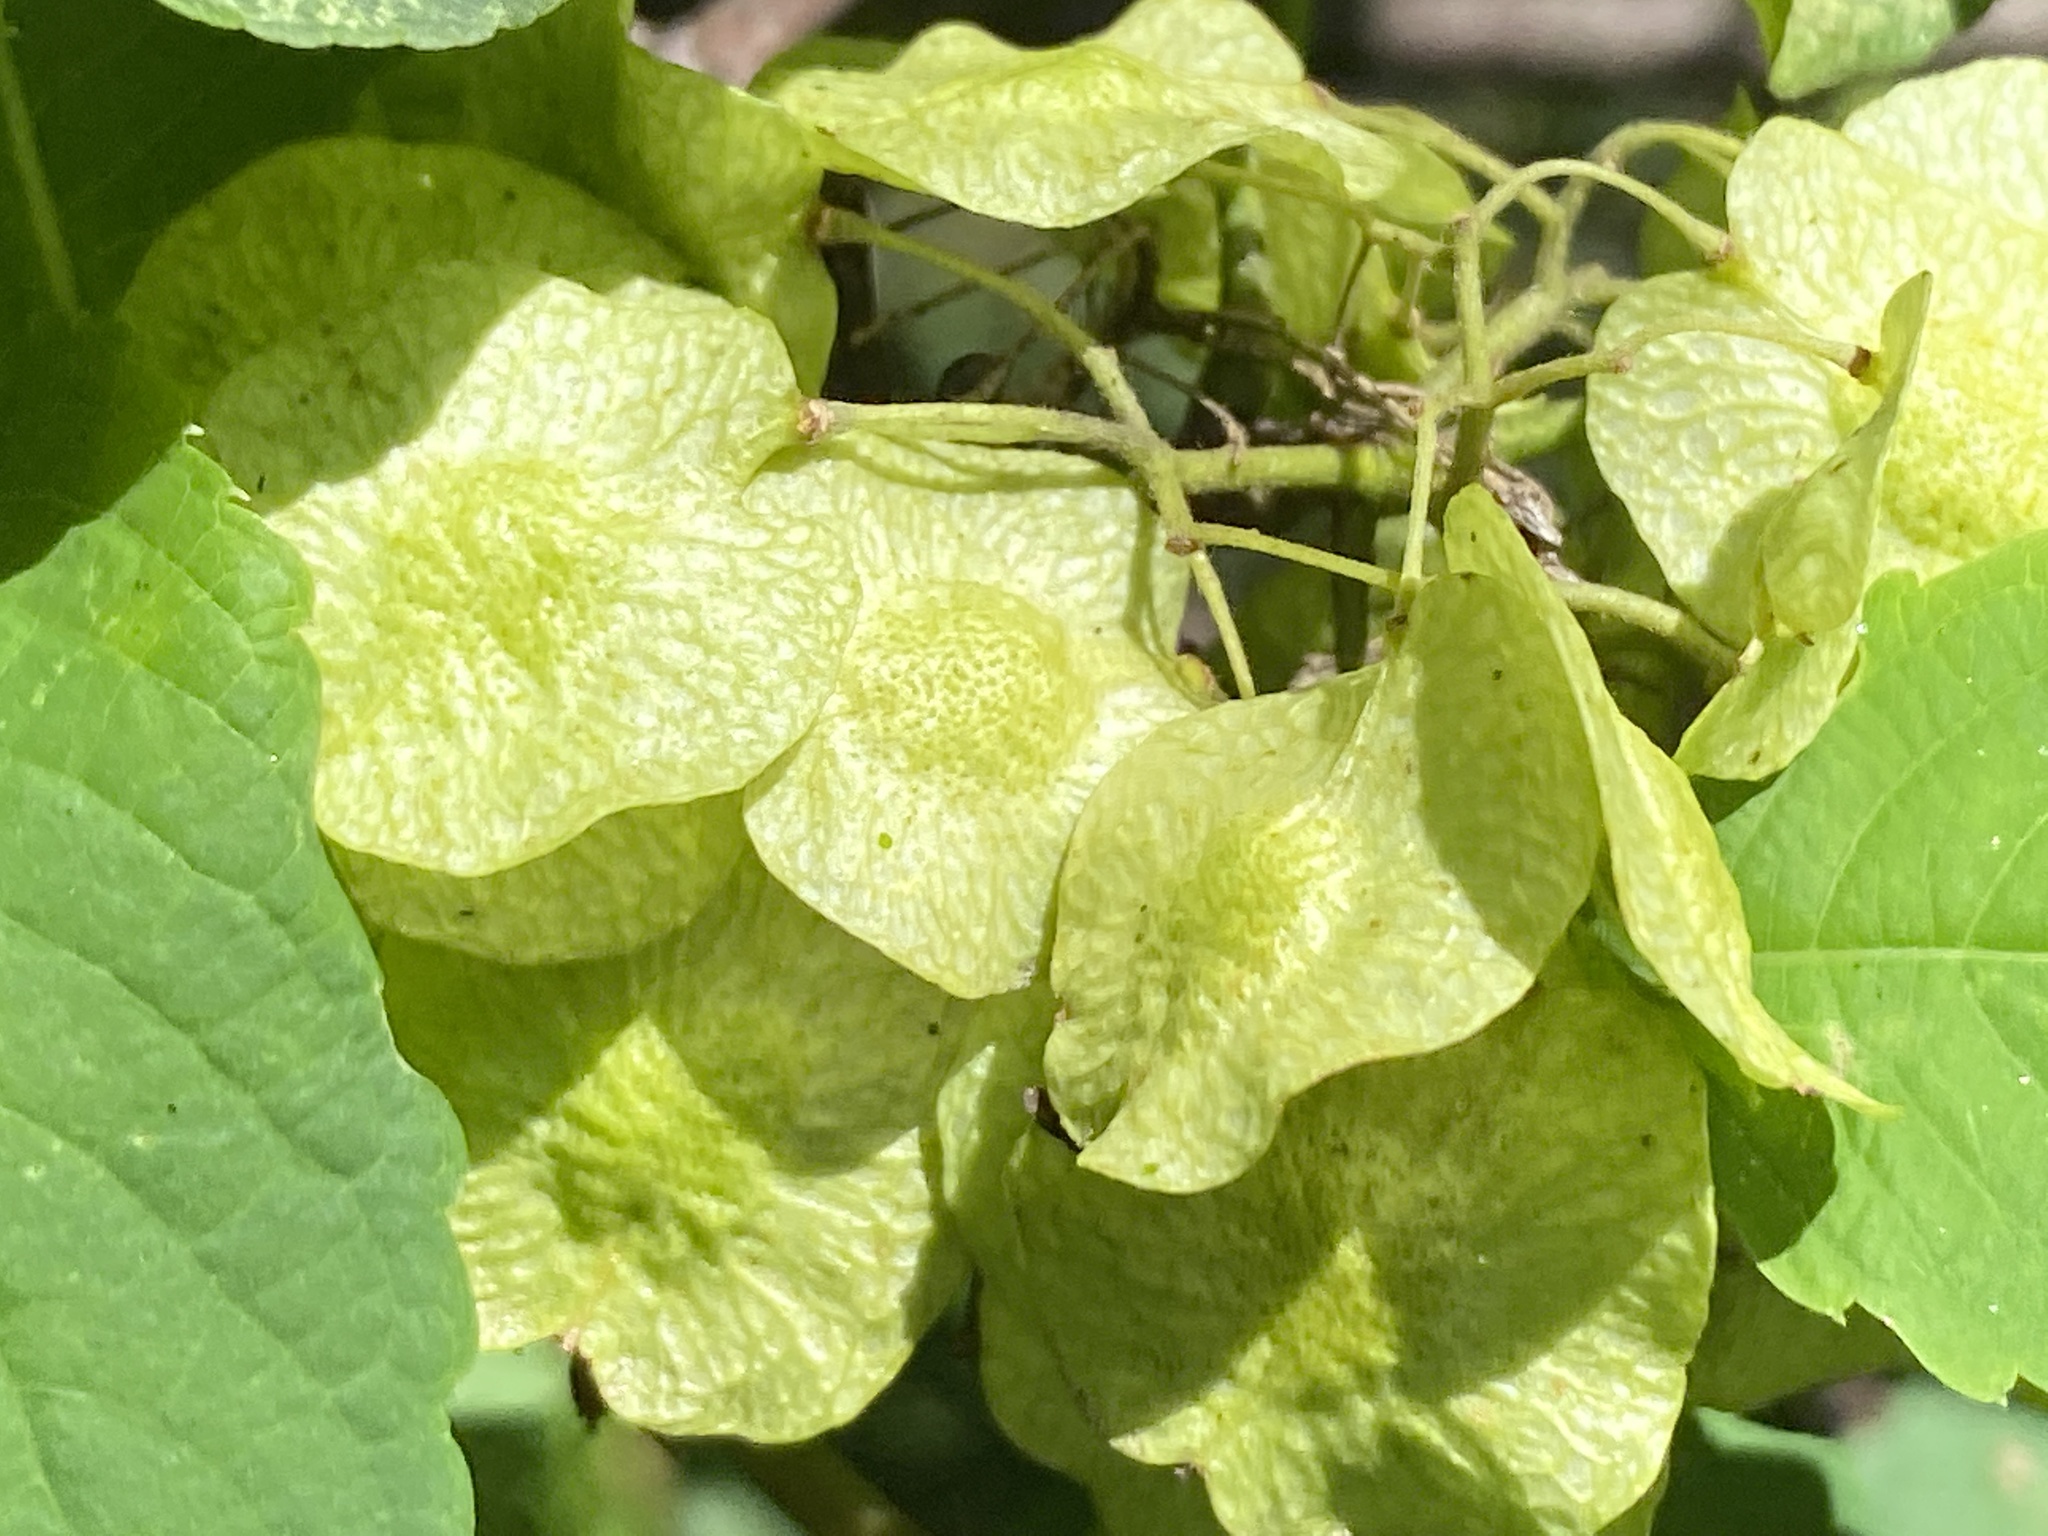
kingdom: Plantae
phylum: Tracheophyta
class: Magnoliopsida
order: Sapindales
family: Rutaceae
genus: Ptelea
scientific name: Ptelea trifoliata
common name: Common hop-tree
